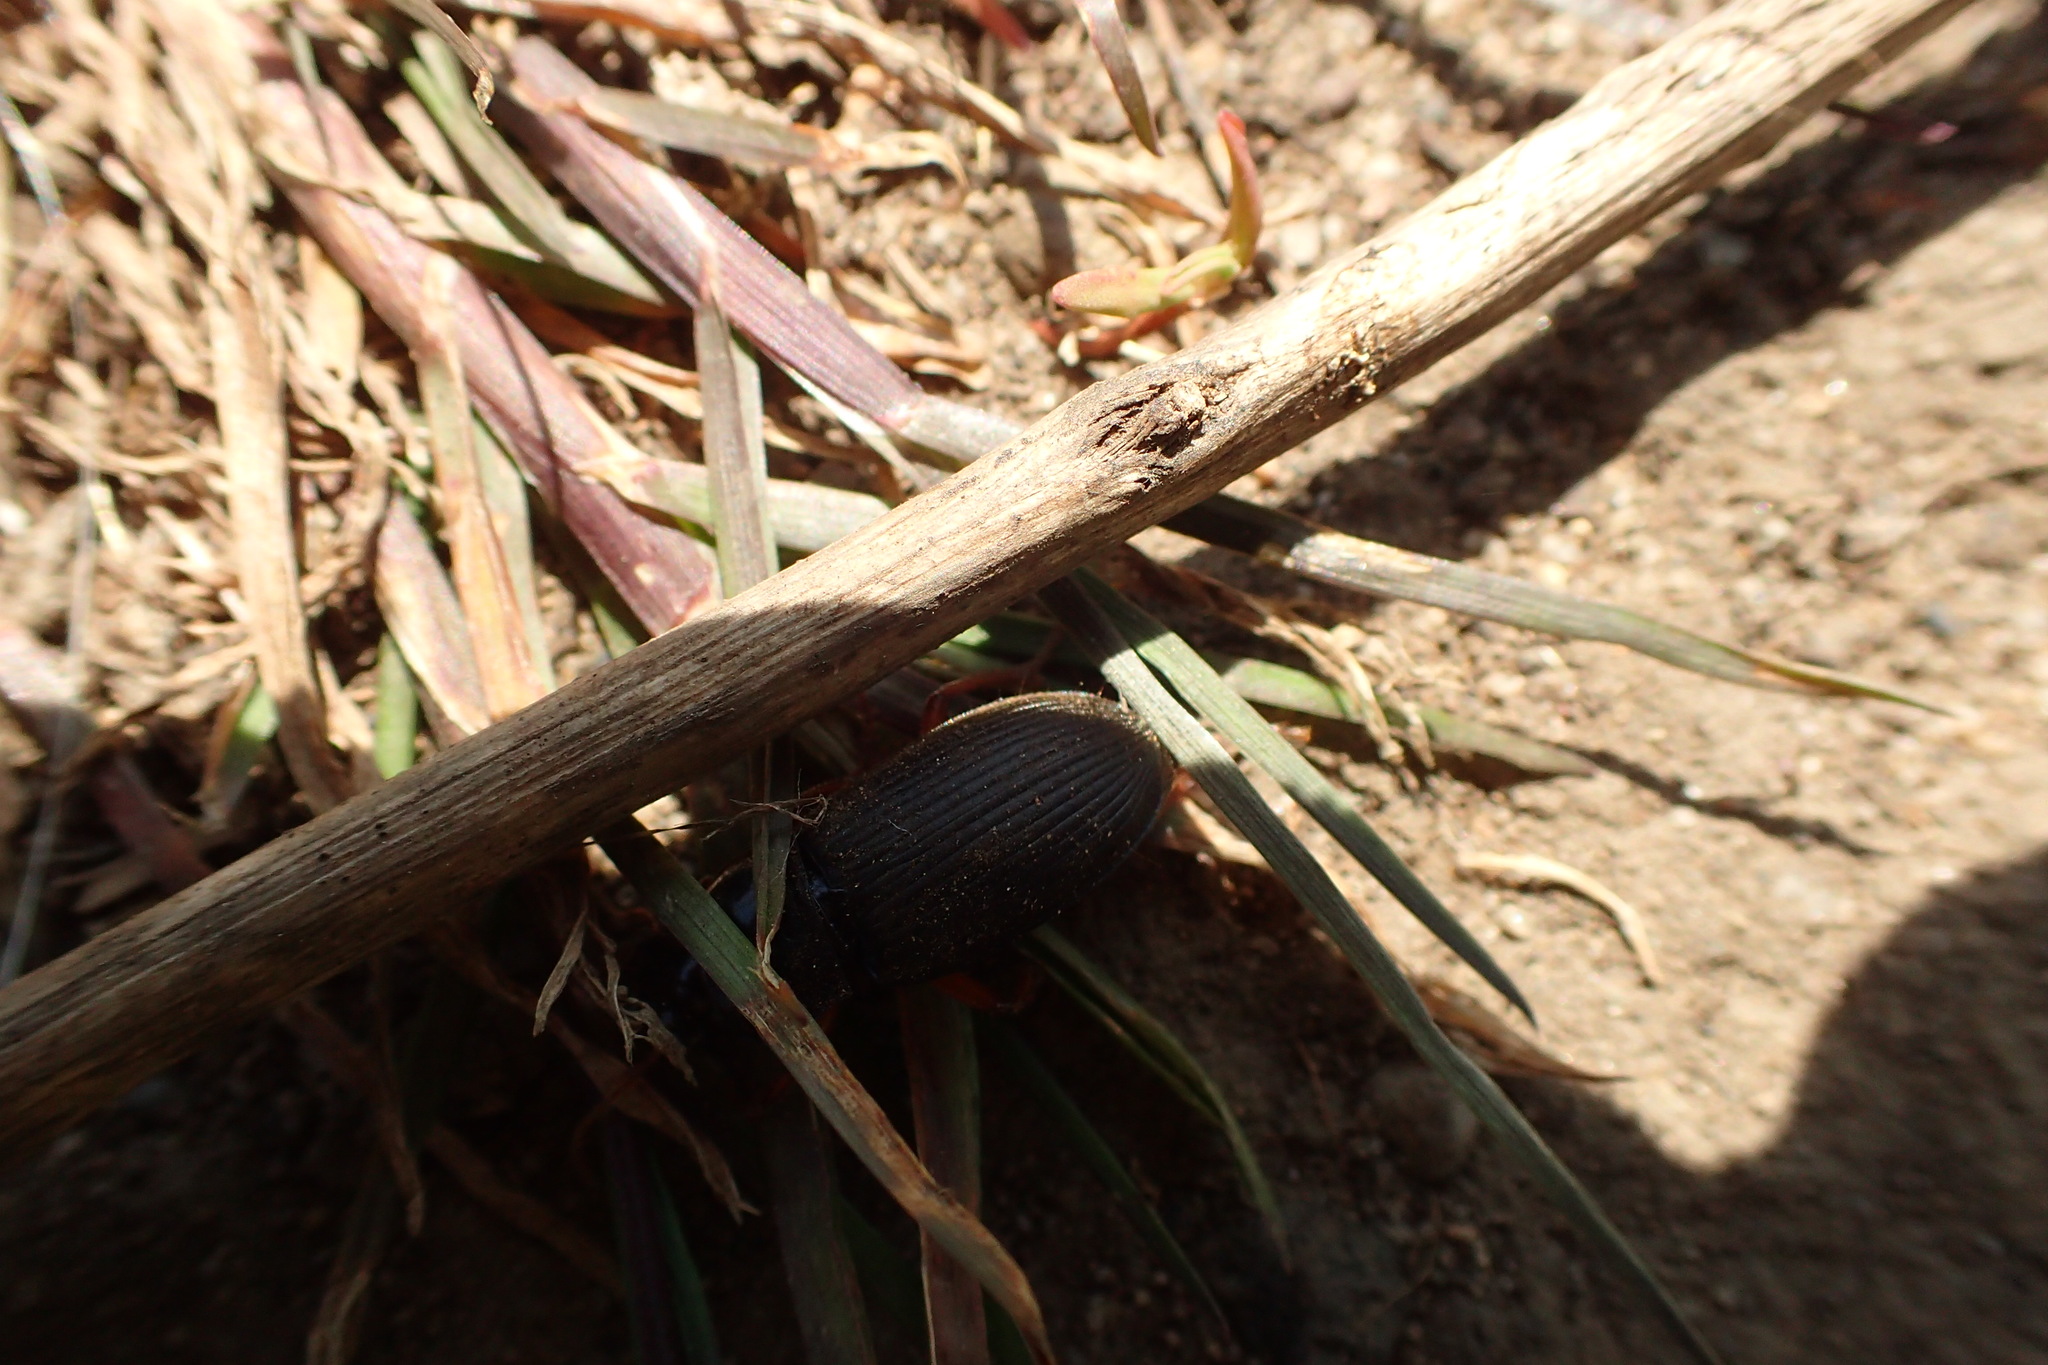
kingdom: Animalia
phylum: Arthropoda
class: Insecta
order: Coleoptera
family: Carabidae
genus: Harpalus
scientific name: Harpalus rufipes
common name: Strawberry harp ground beetle
